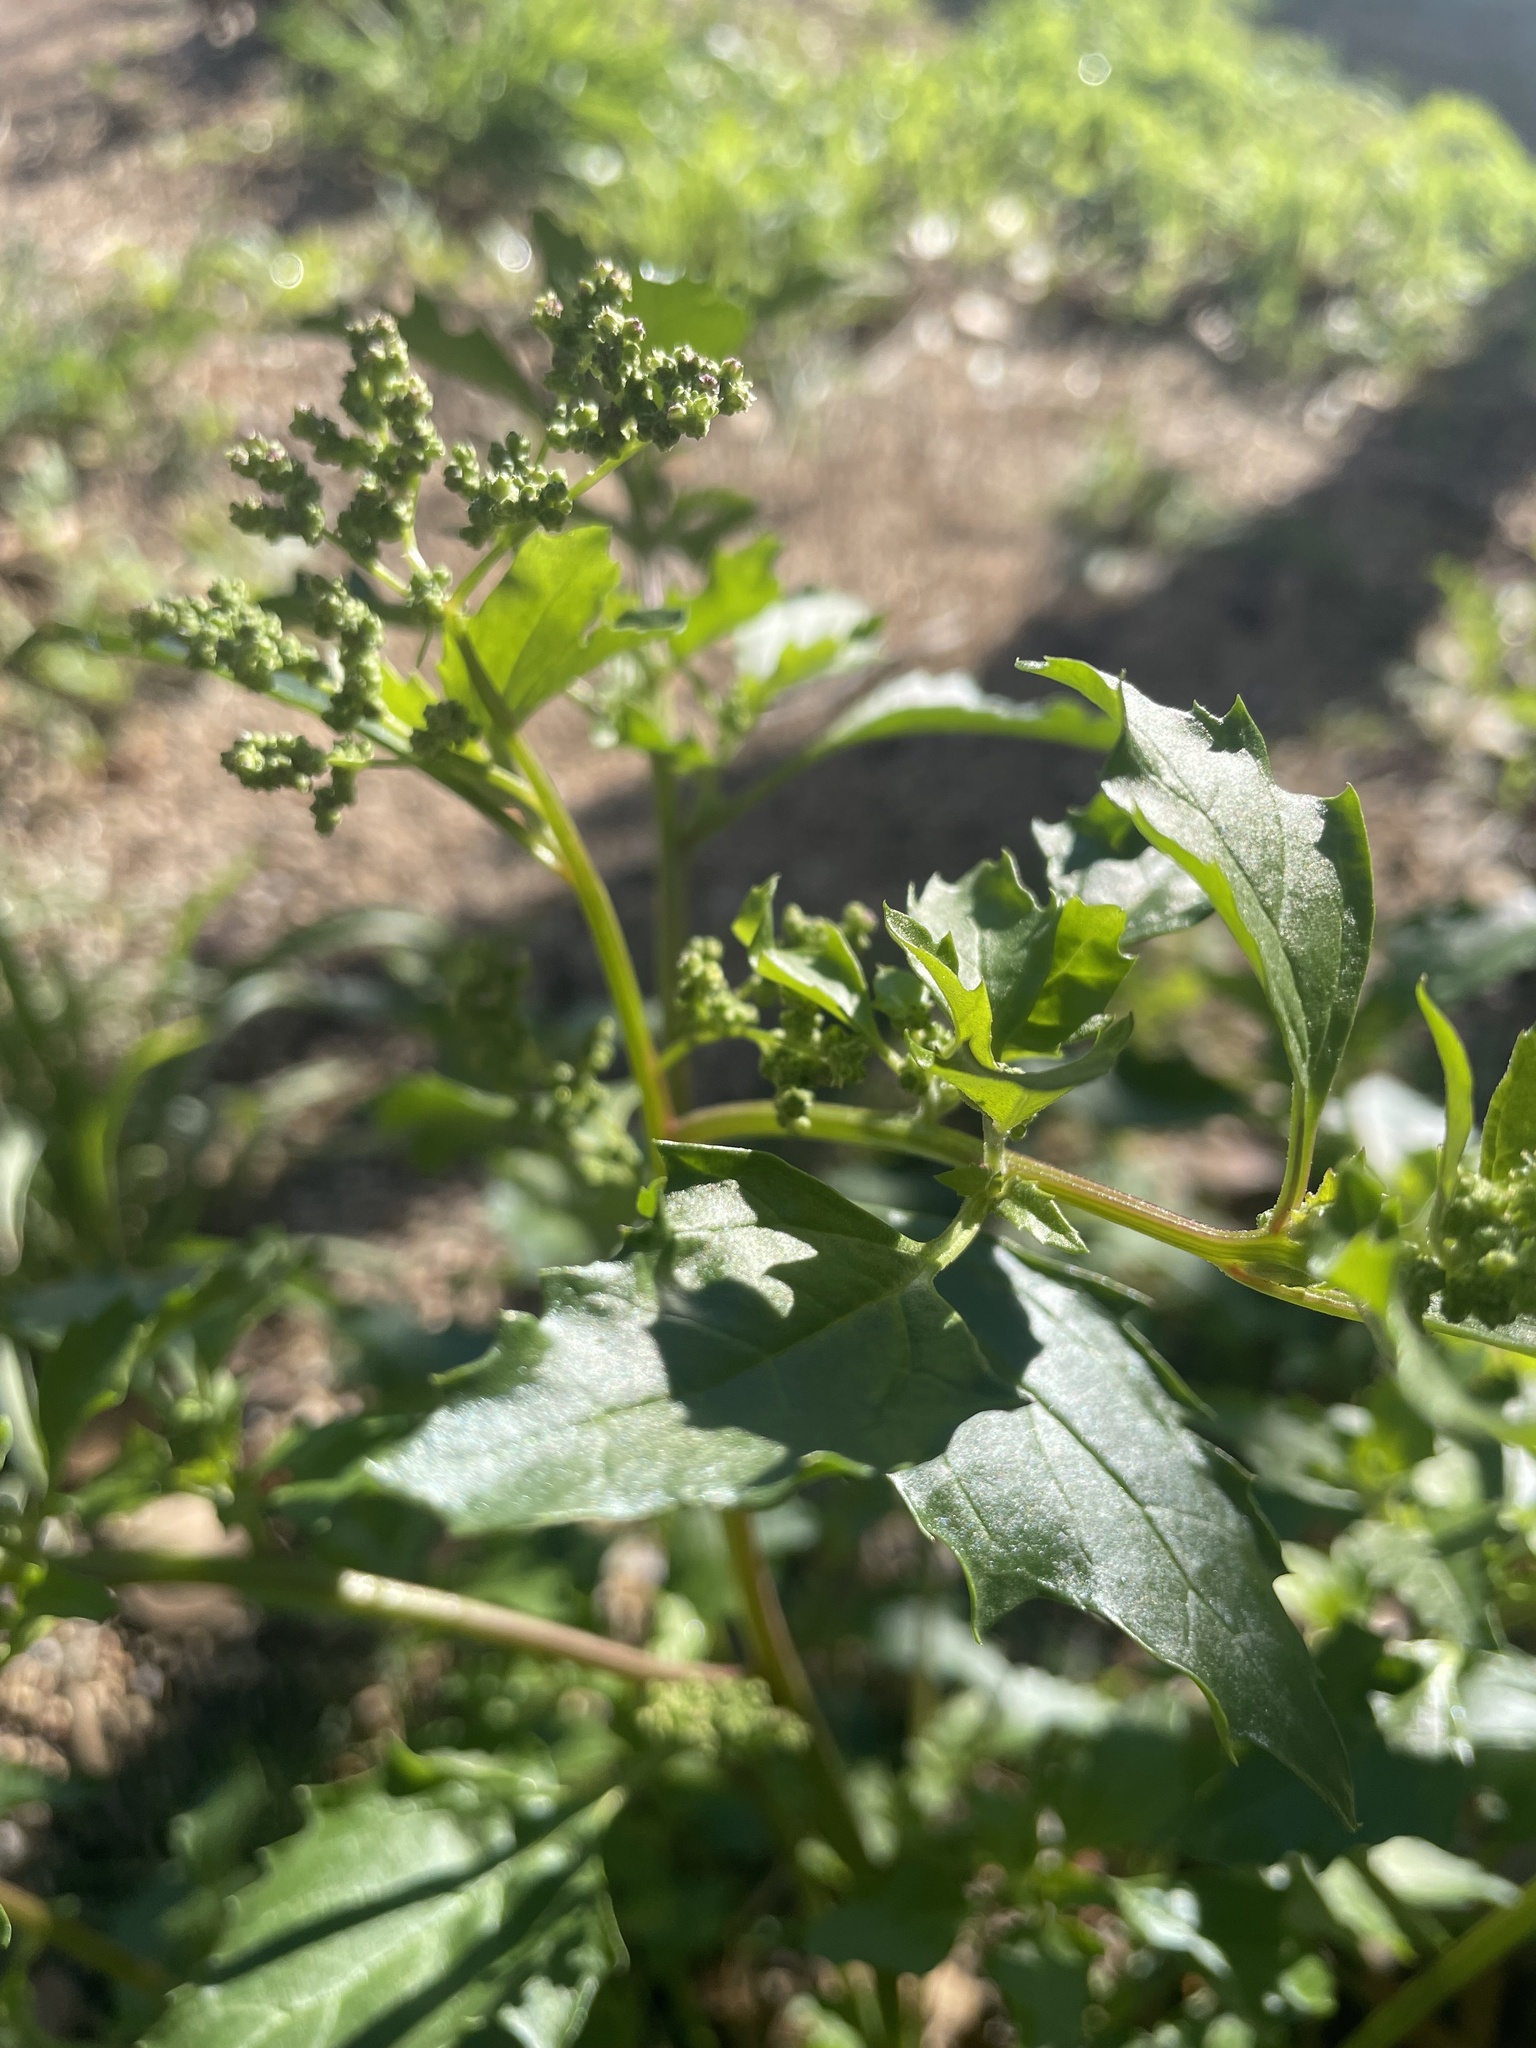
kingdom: Plantae
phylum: Tracheophyta
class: Magnoliopsida
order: Caryophyllales
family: Amaranthaceae
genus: Chenopodiastrum
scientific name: Chenopodiastrum murale
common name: Sowbane
